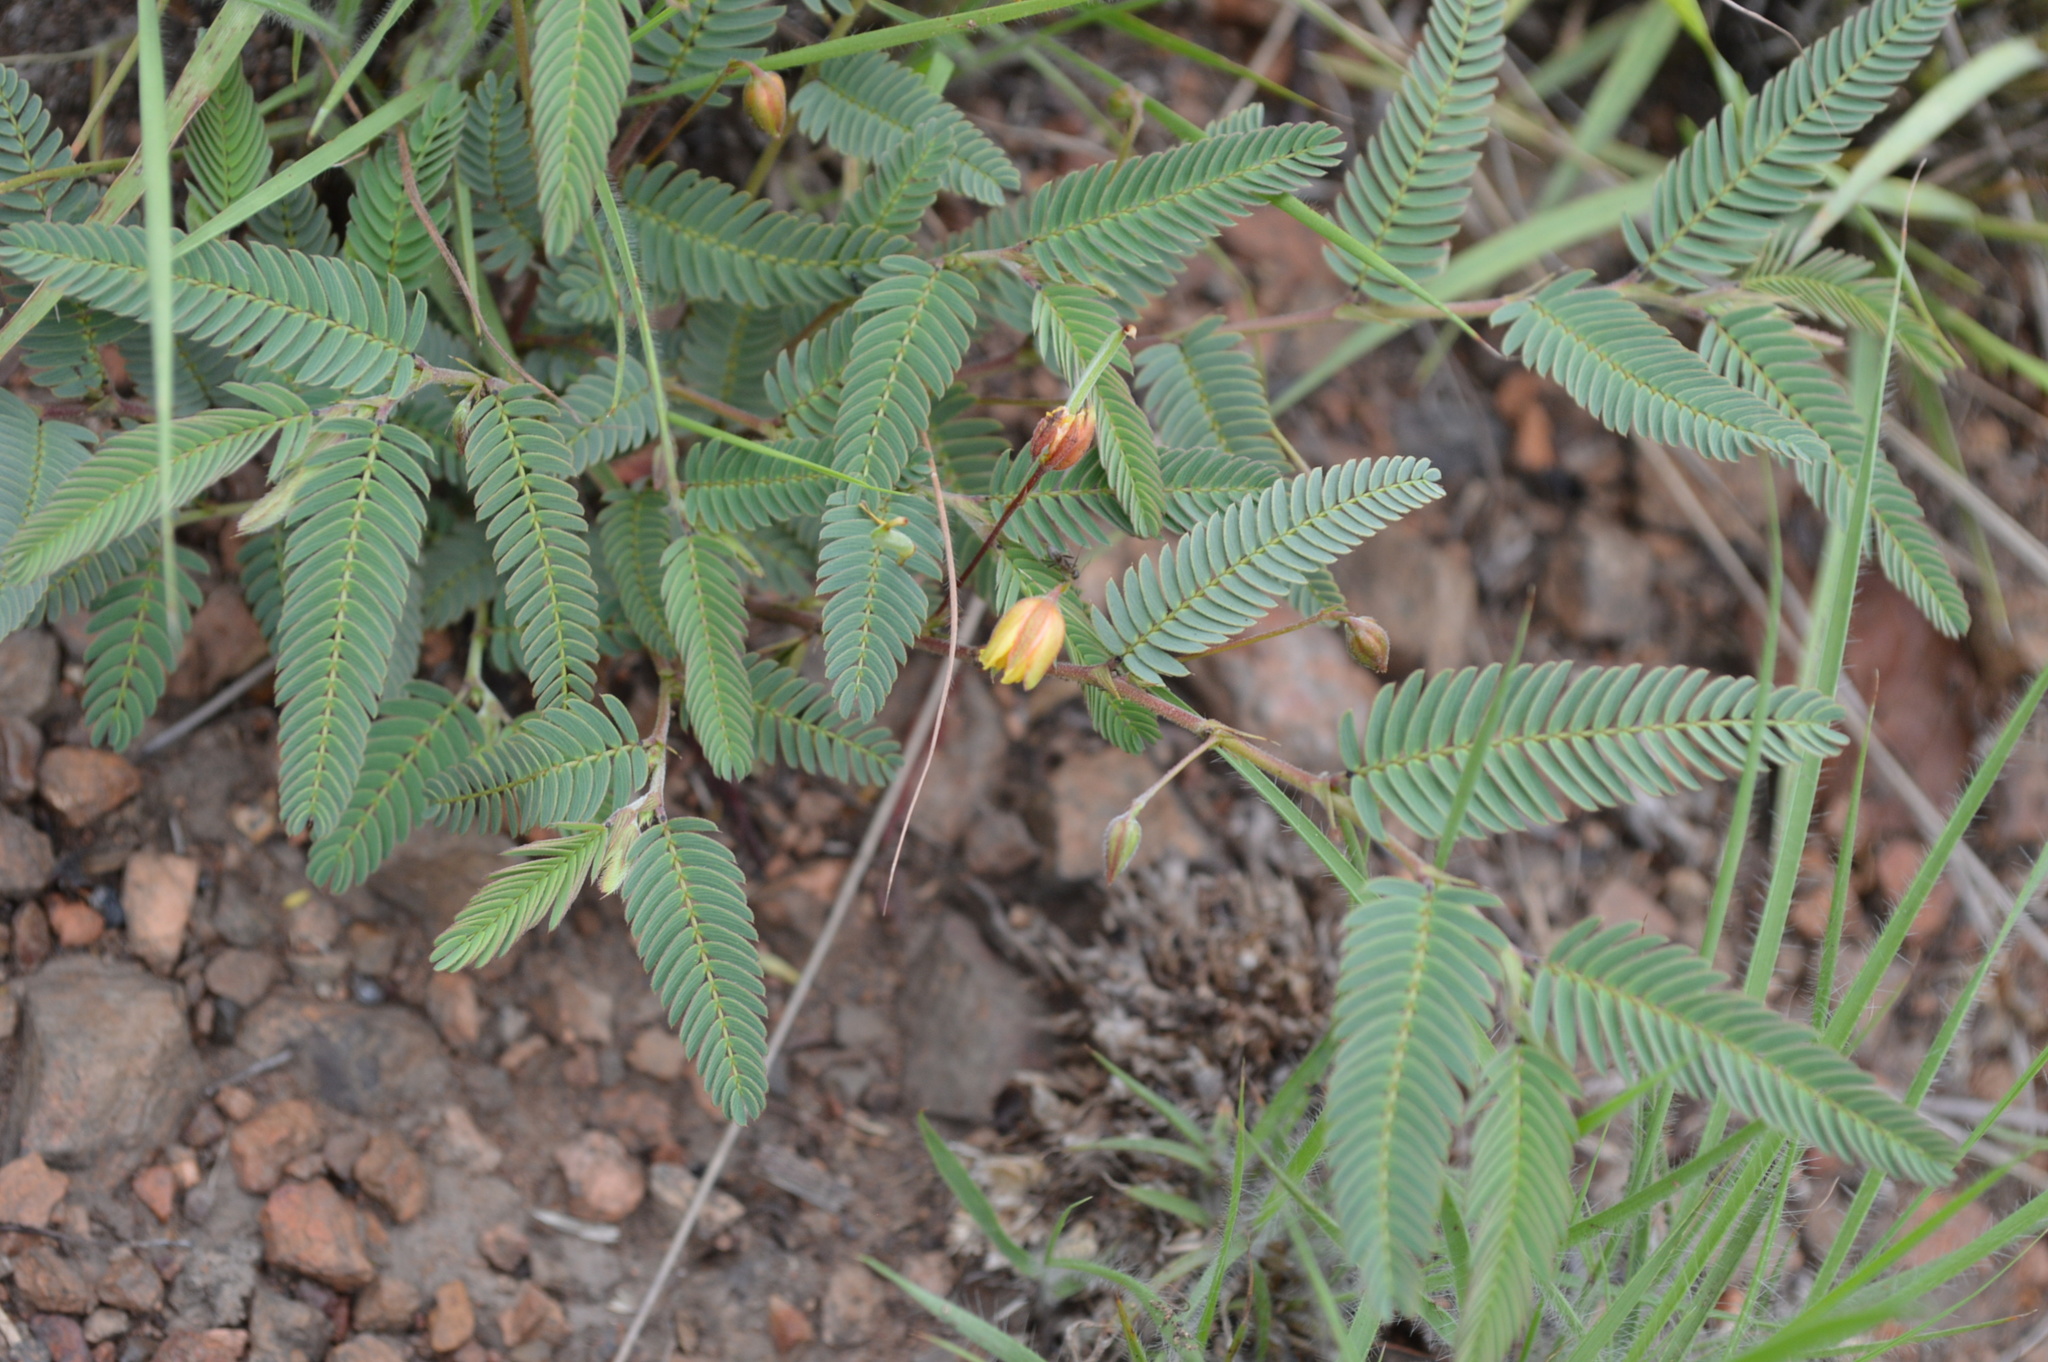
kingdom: Plantae
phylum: Tracheophyta
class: Magnoliopsida
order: Fabales
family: Fabaceae
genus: Chamaecrista
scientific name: Chamaecrista comosa
